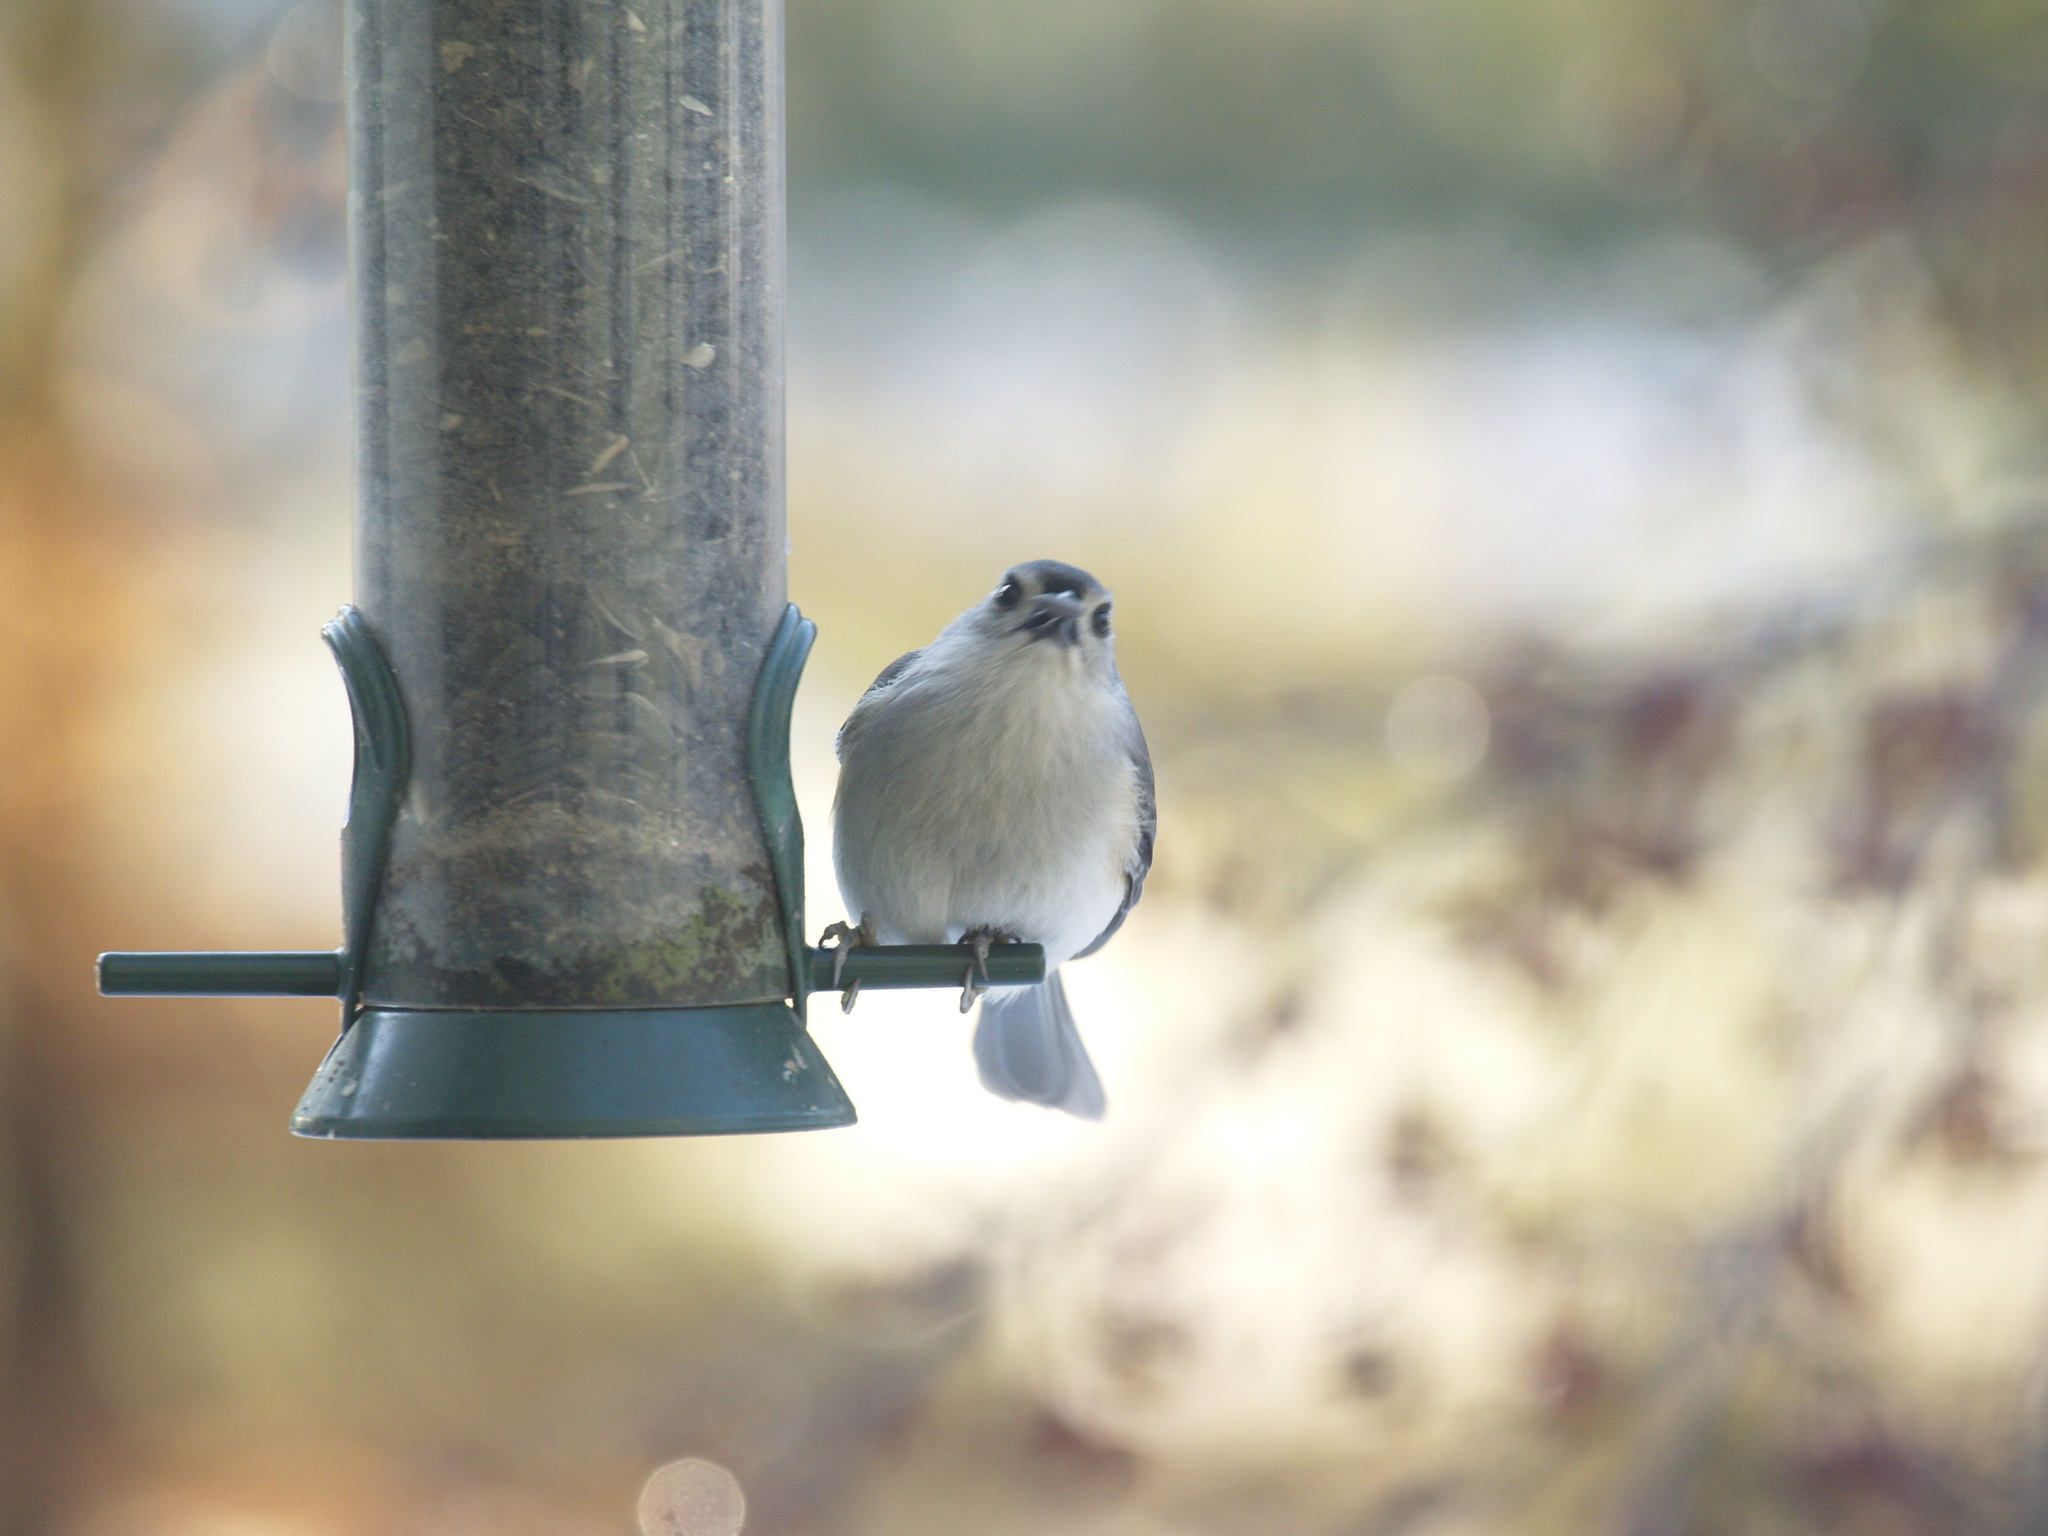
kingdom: Animalia
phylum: Chordata
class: Aves
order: Passeriformes
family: Paridae
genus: Baeolophus
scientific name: Baeolophus bicolor
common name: Tufted titmouse
